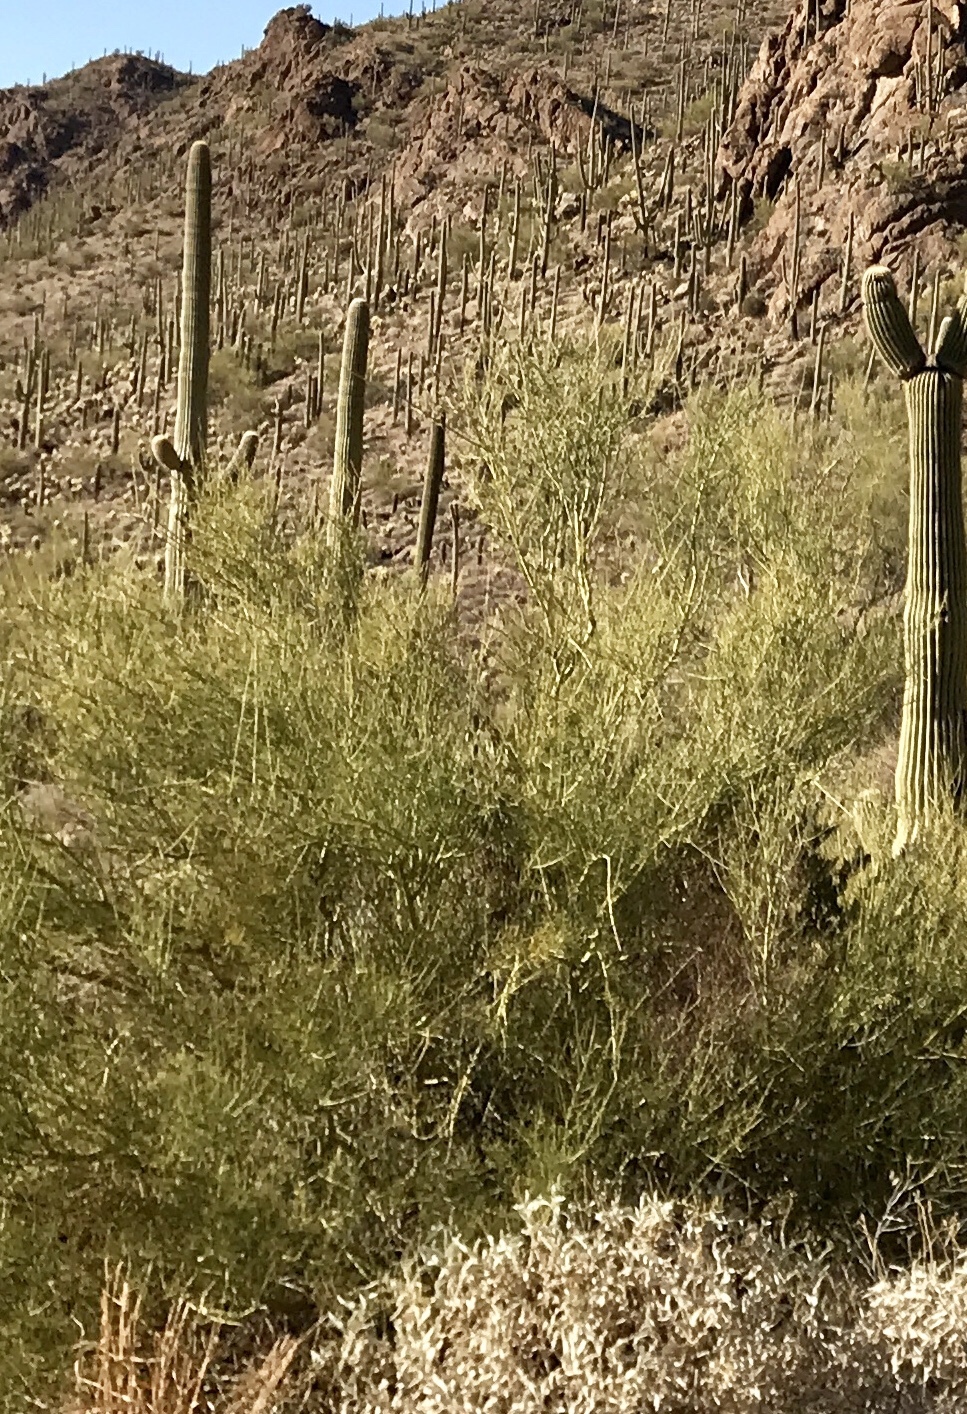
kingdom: Plantae
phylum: Tracheophyta
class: Magnoliopsida
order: Fabales
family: Fabaceae
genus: Parkinsonia
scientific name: Parkinsonia microphylla
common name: Yellow paloverde
